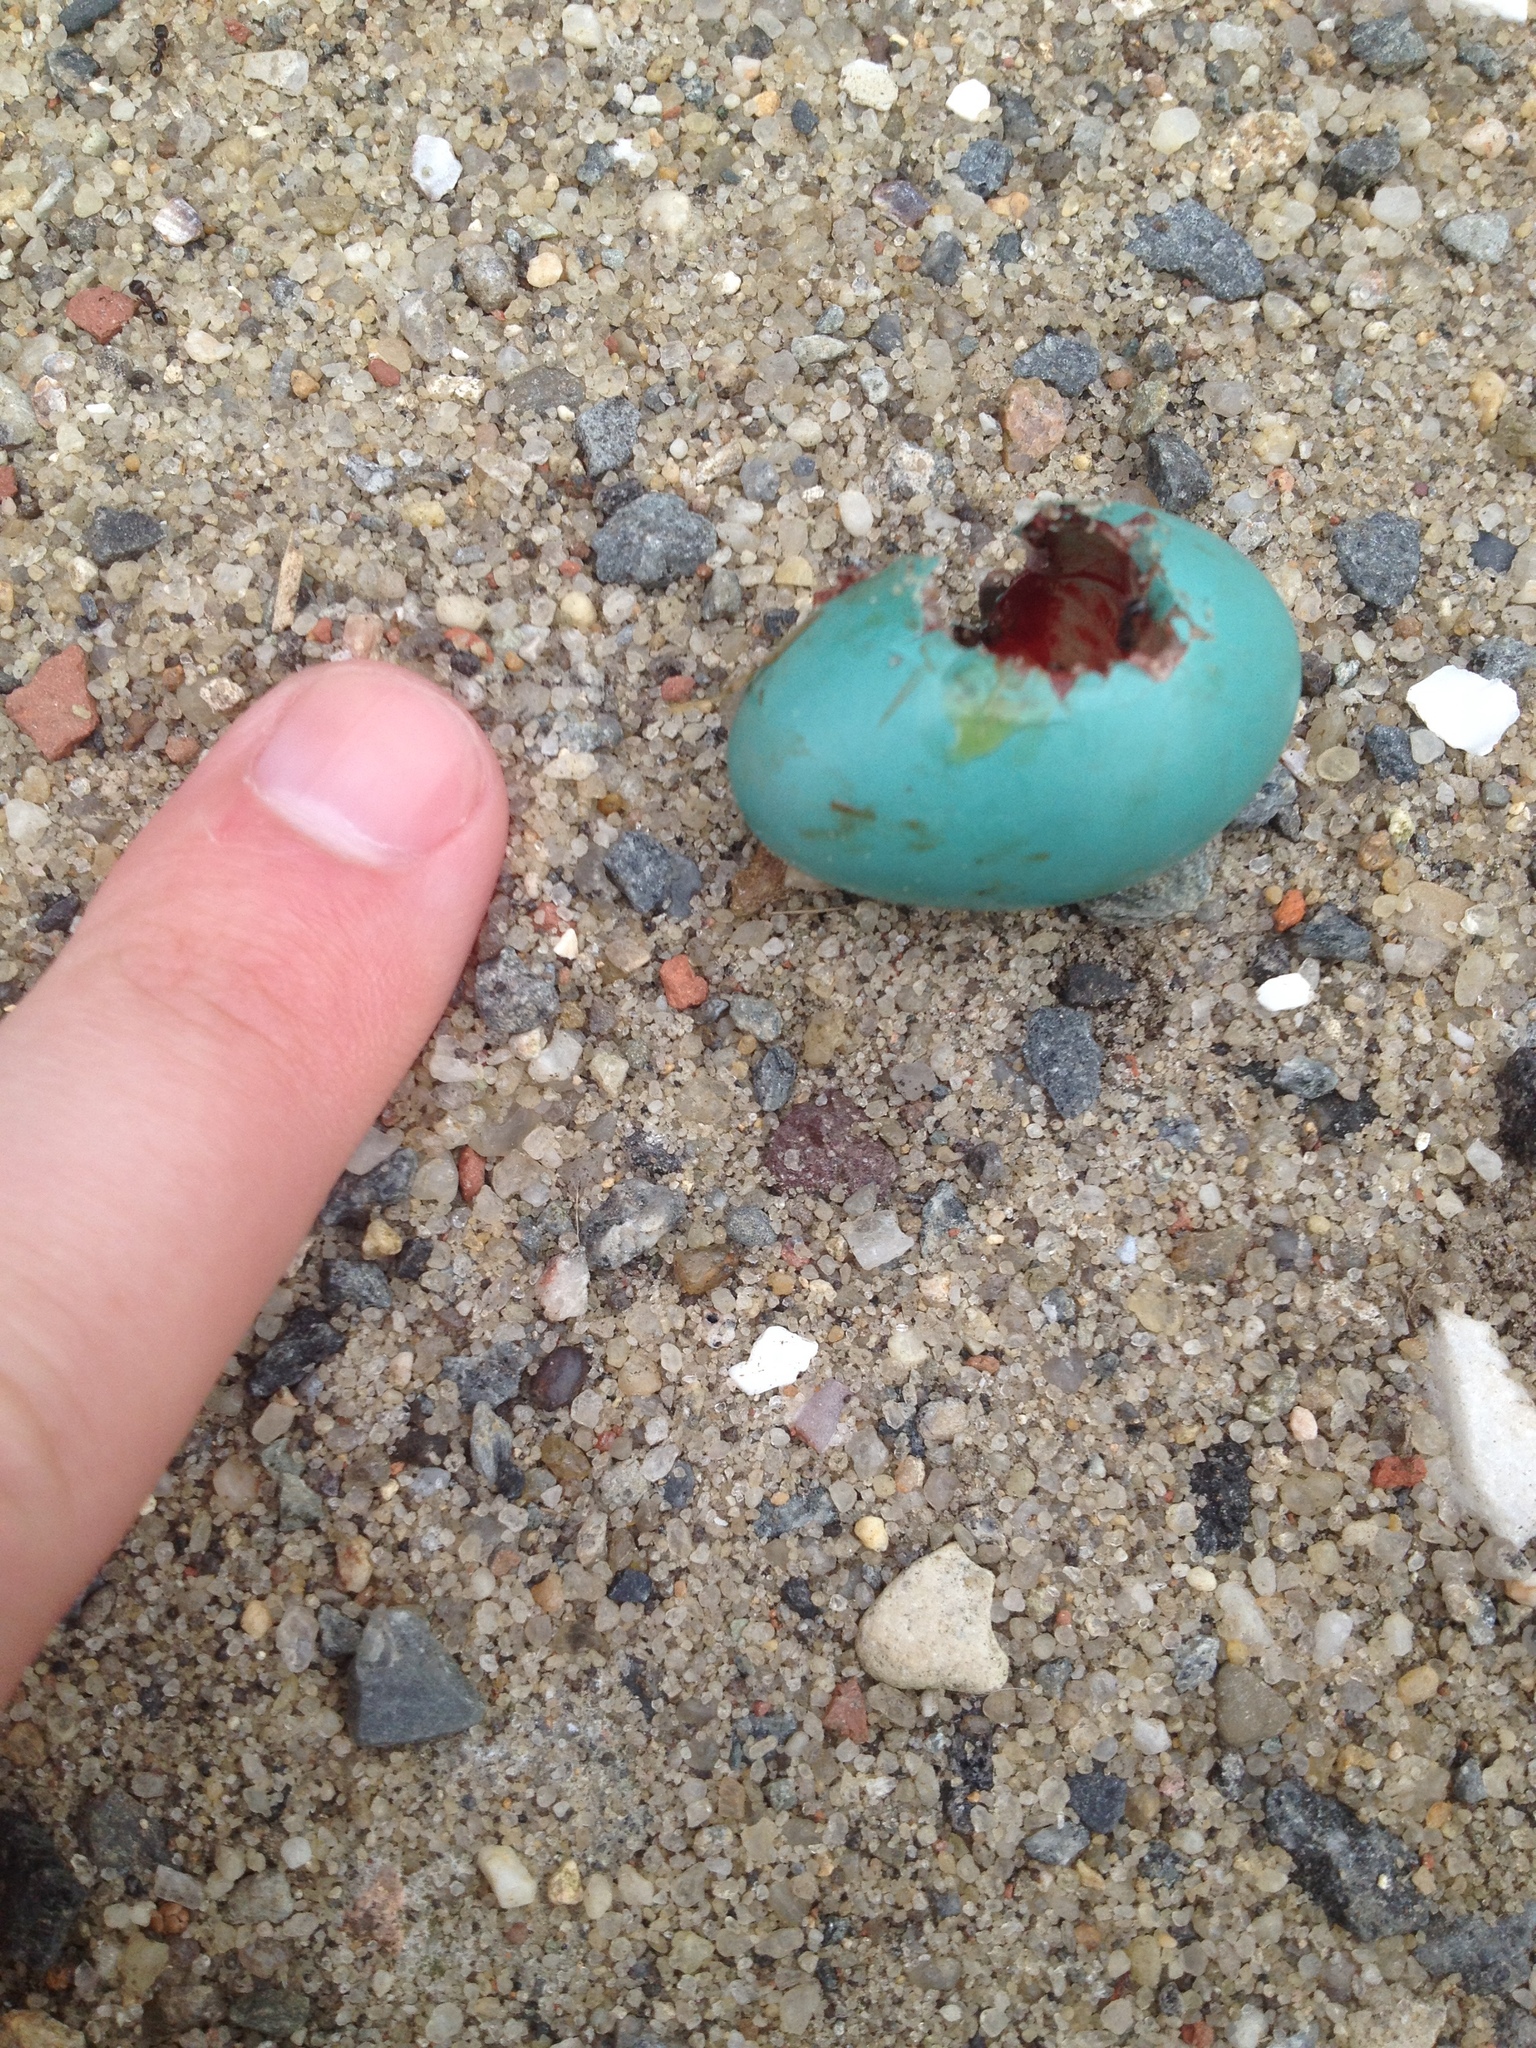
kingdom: Animalia
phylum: Chordata
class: Aves
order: Passeriformes
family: Turdidae
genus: Turdus
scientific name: Turdus migratorius
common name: American robin
